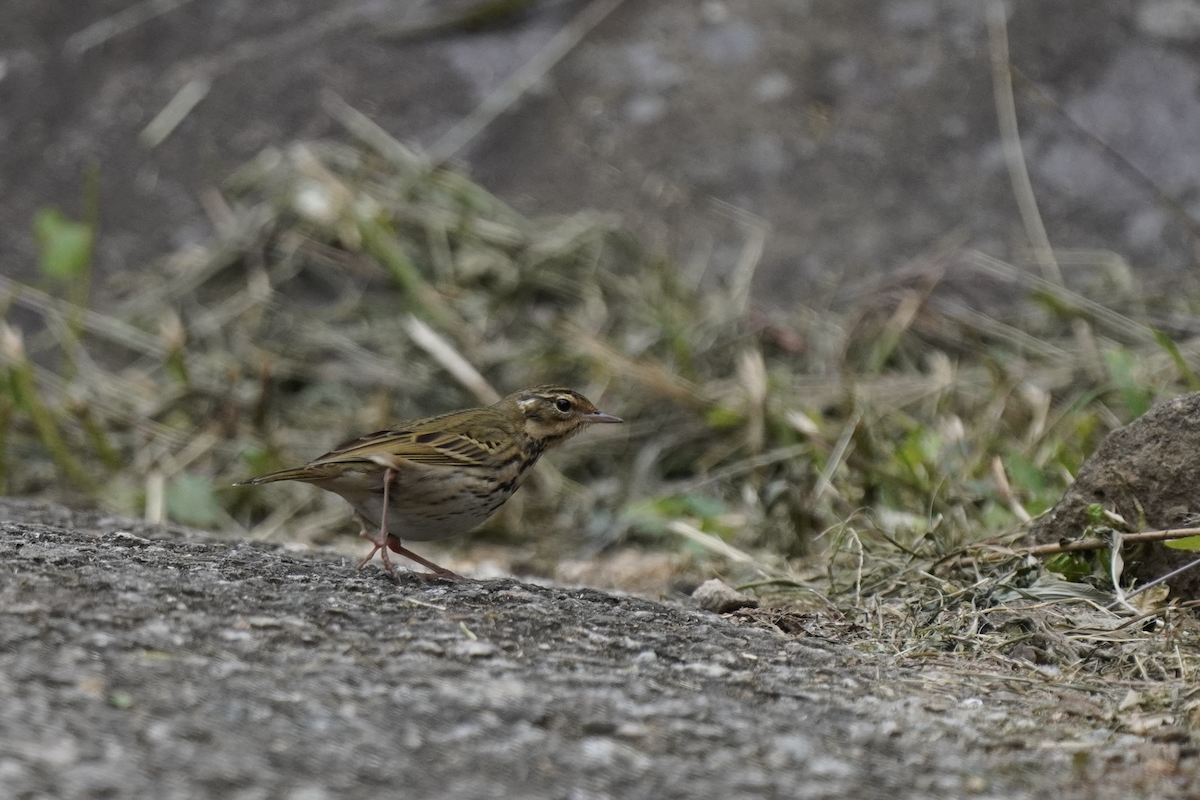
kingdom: Animalia
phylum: Chordata
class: Aves
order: Passeriformes
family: Motacillidae
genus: Anthus
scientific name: Anthus hodgsoni
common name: Olive-backed pipit
